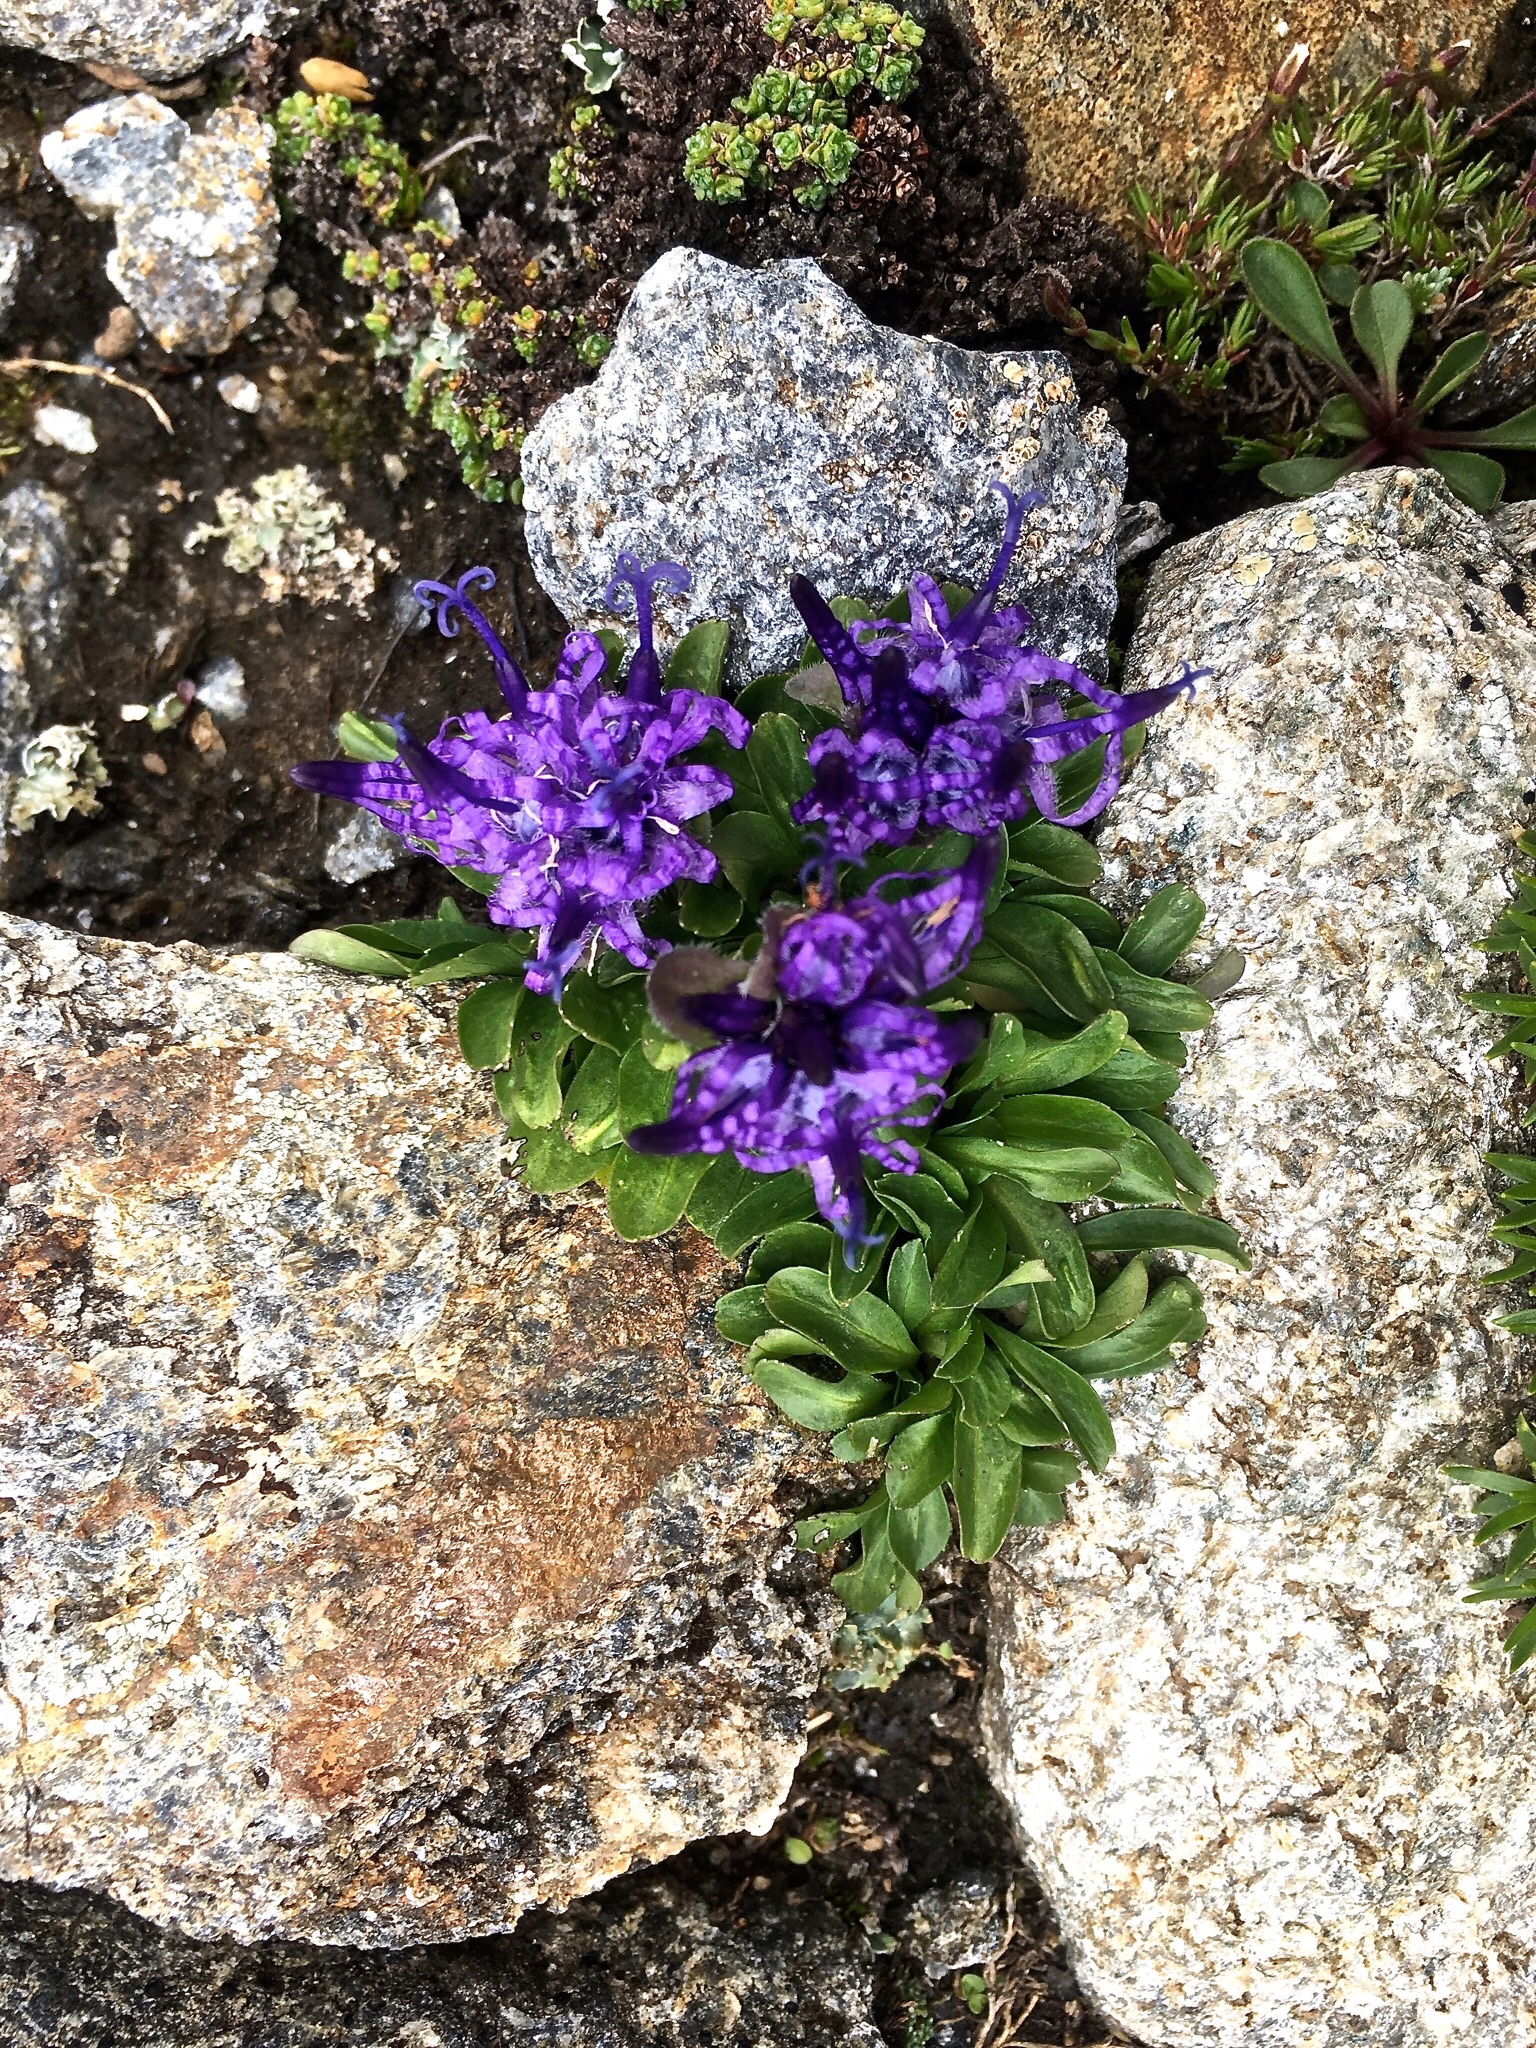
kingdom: Plantae
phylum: Tracheophyta
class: Magnoliopsida
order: Asterales
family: Campanulaceae
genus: Phyteuma
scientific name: Phyteuma globulariifolium
